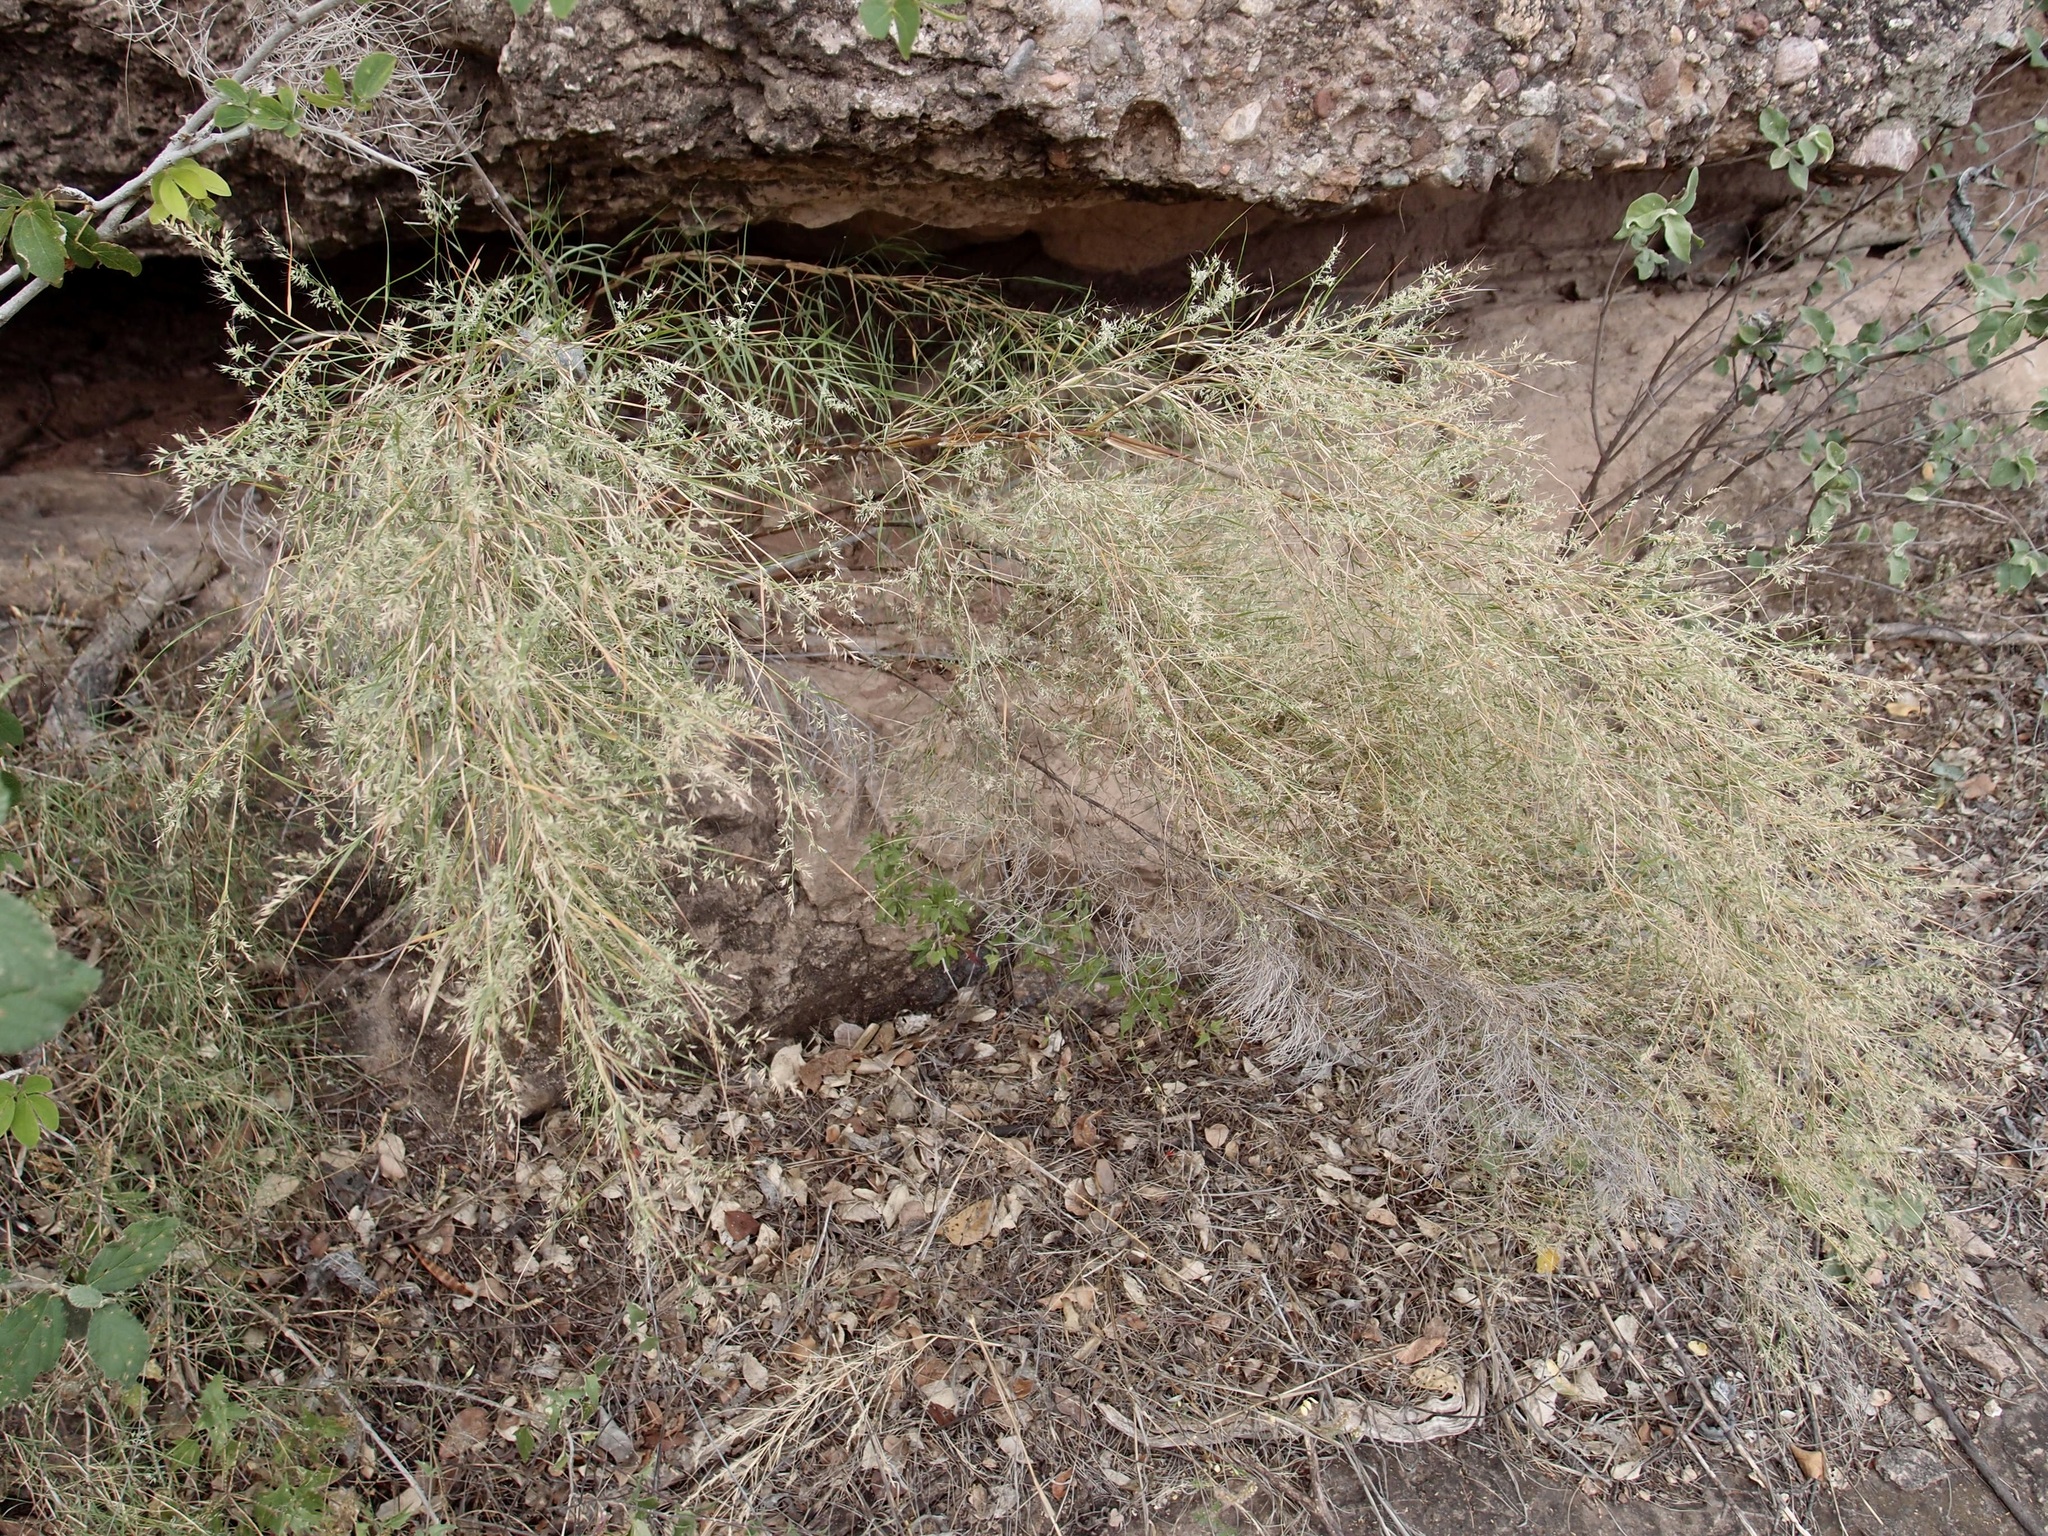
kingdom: Plantae
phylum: Tracheophyta
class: Liliopsida
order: Poales
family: Poaceae
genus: Muhlenbergia
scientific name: Muhlenbergia dumosa
